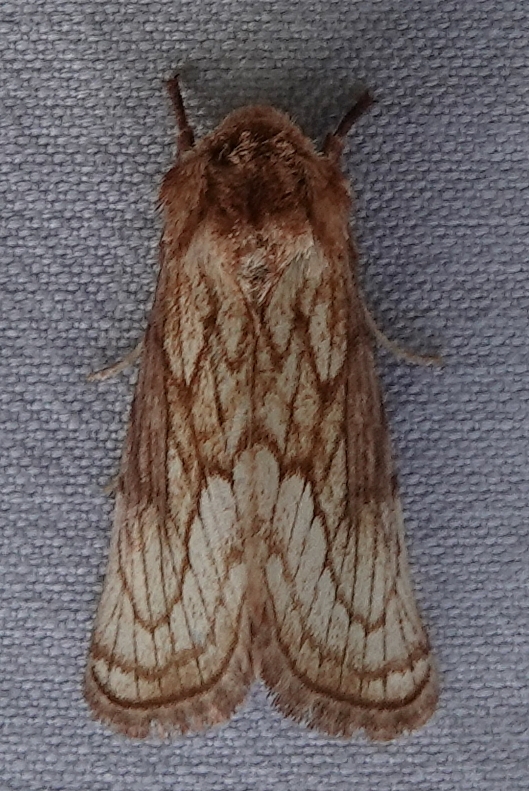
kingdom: Animalia
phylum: Arthropoda
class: Insecta
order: Lepidoptera
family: Noctuidae
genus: Nocloa
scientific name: Nocloa duplicatus
